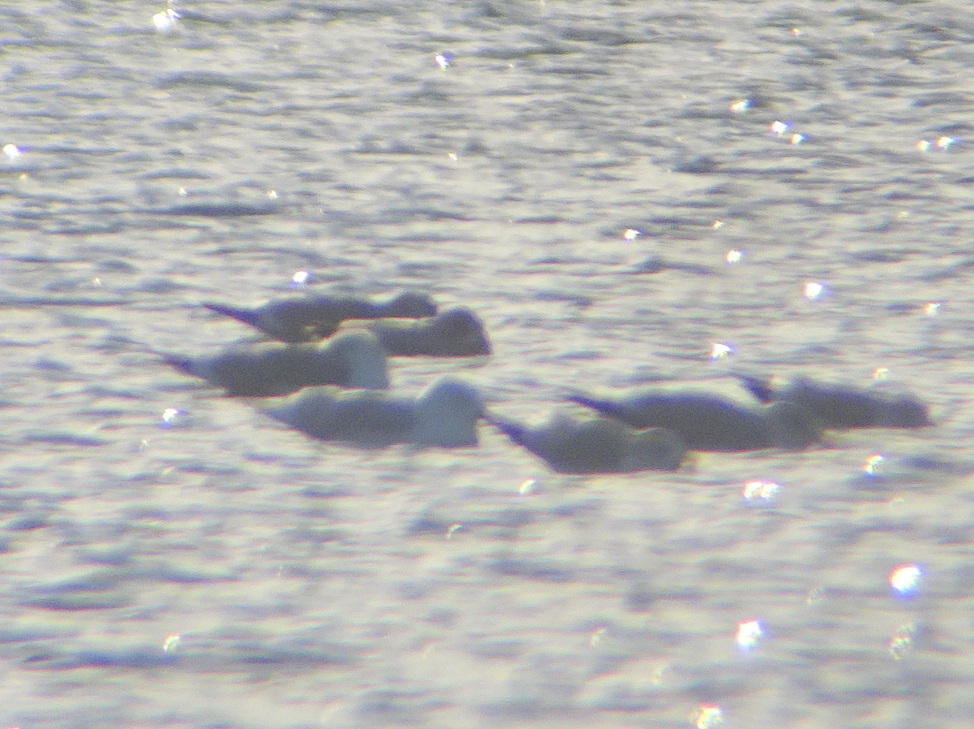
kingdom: Animalia
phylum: Chordata
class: Aves
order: Charadriiformes
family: Laridae
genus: Larus
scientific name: Larus hyperboreus
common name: Glaucous gull
